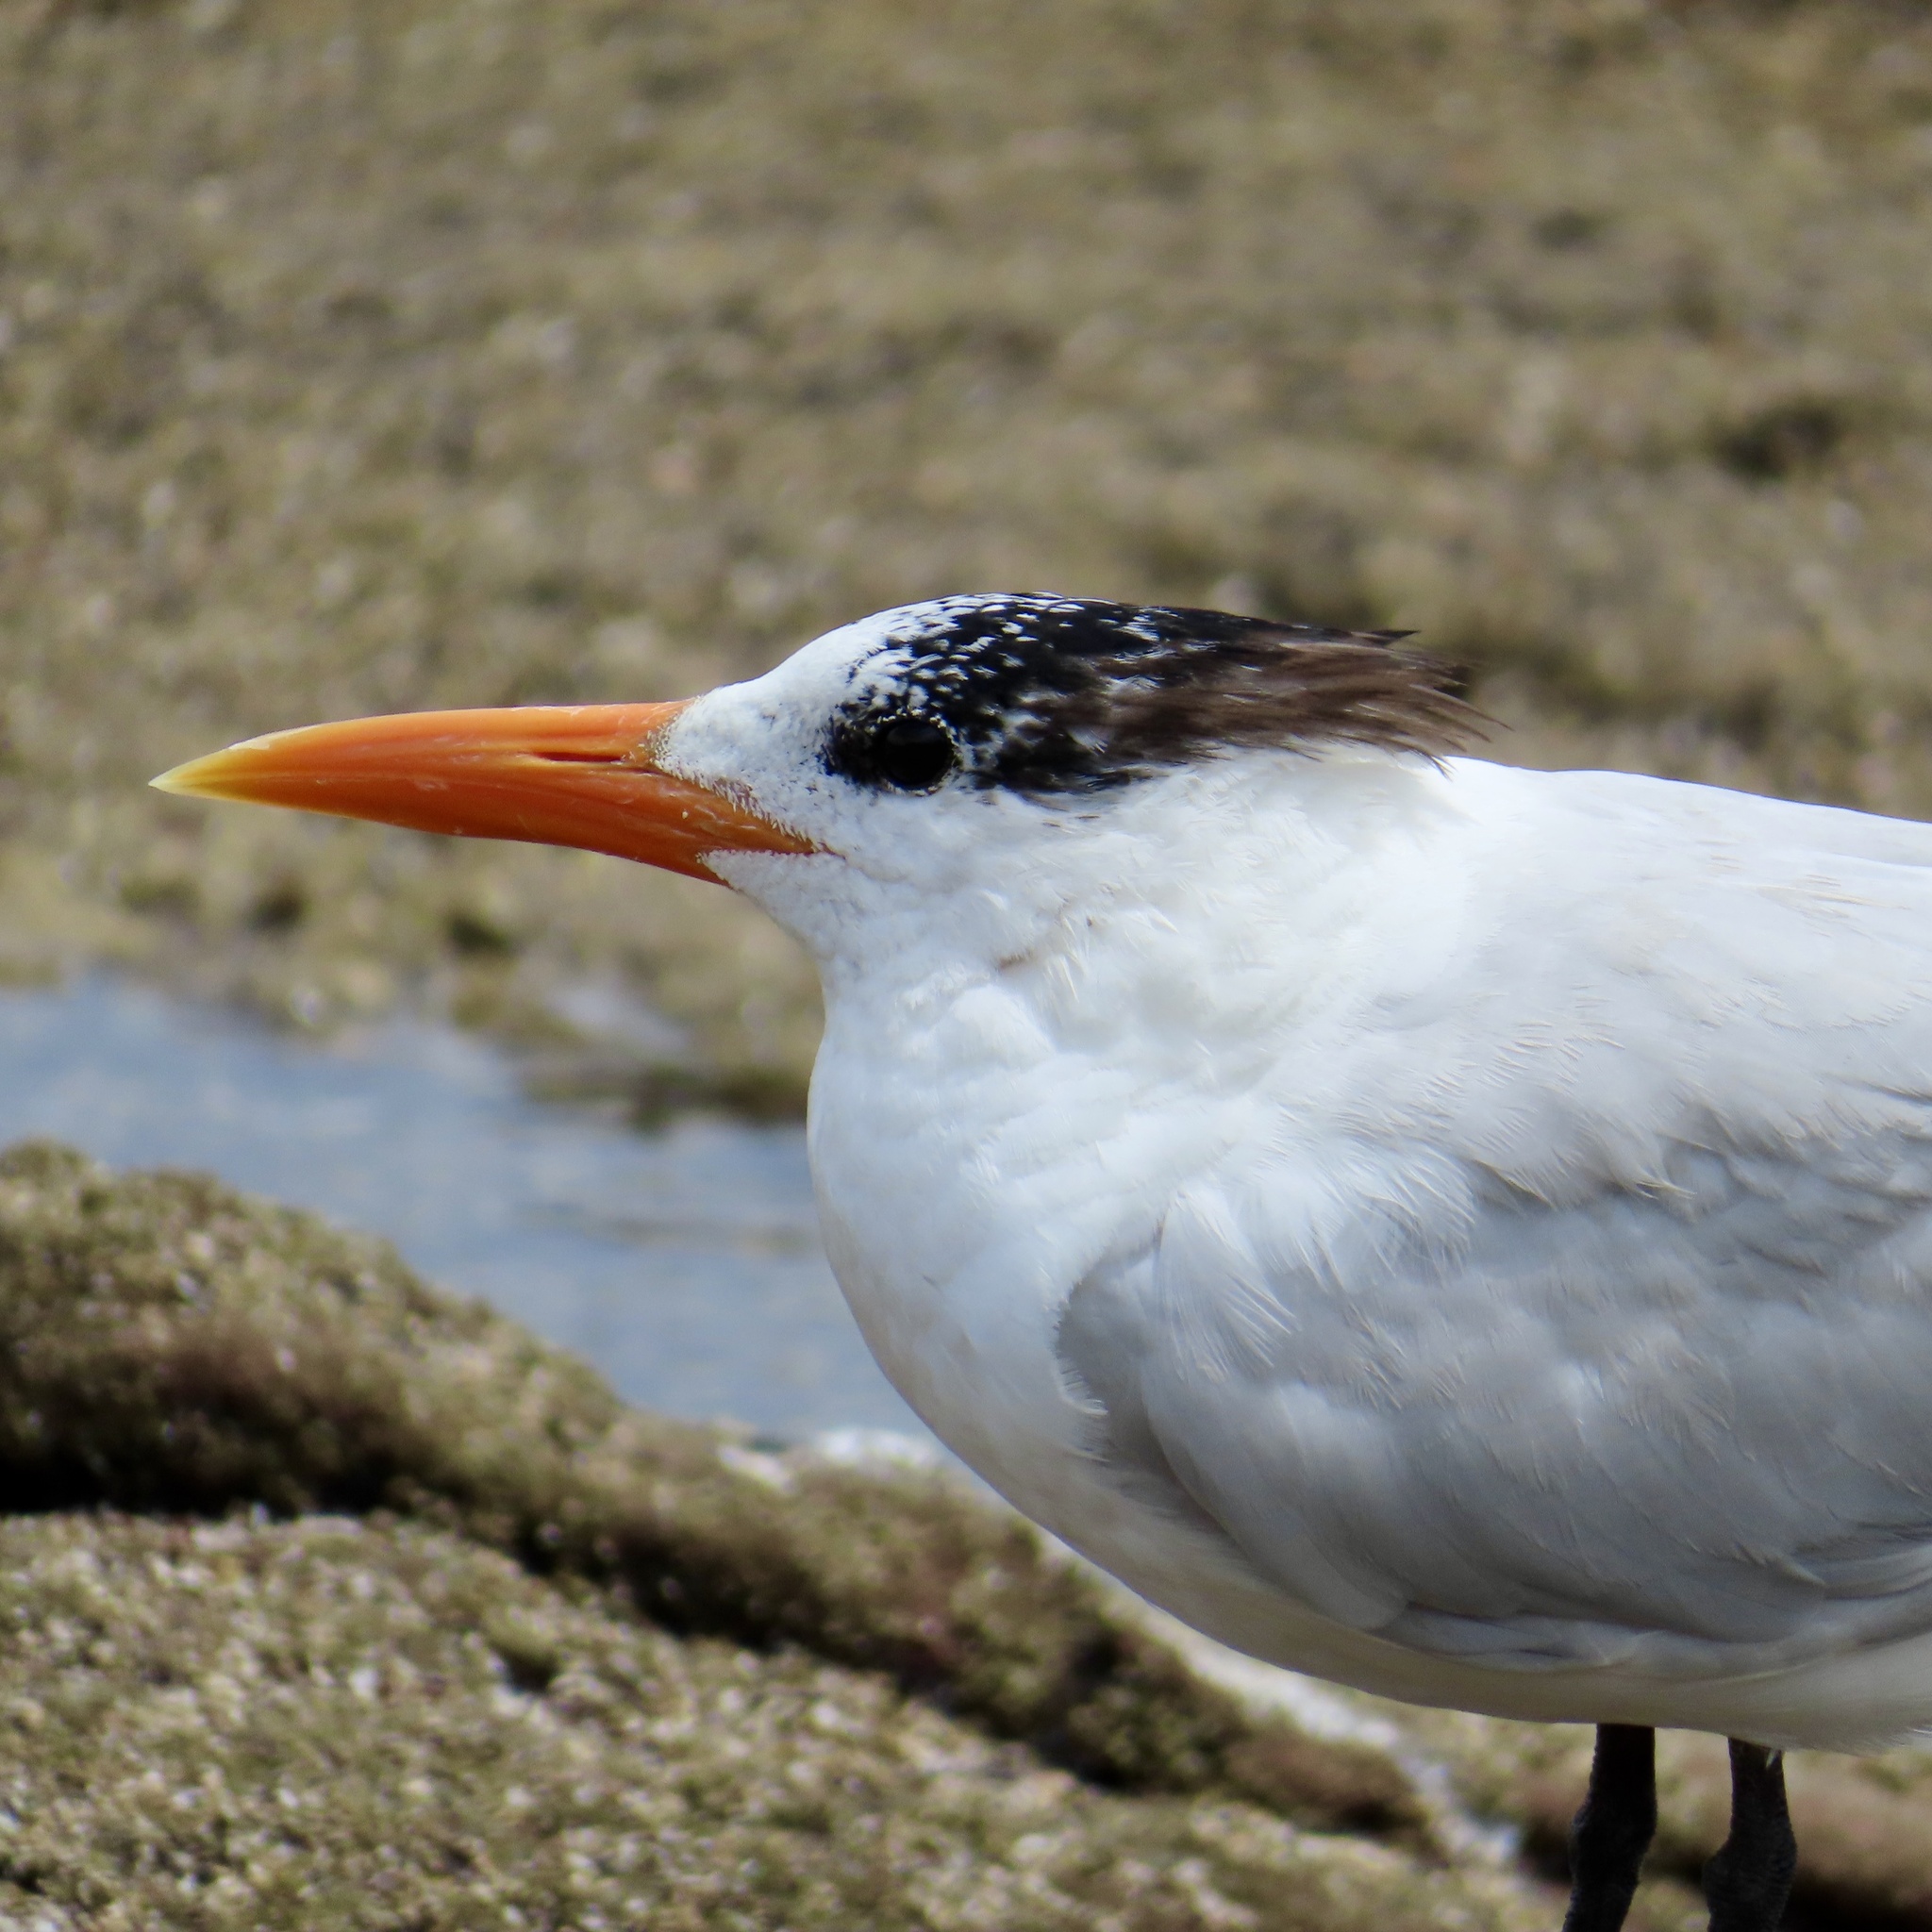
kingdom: Animalia
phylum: Chordata
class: Aves
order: Charadriiformes
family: Laridae
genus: Thalasseus
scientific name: Thalasseus maximus
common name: Royal tern
